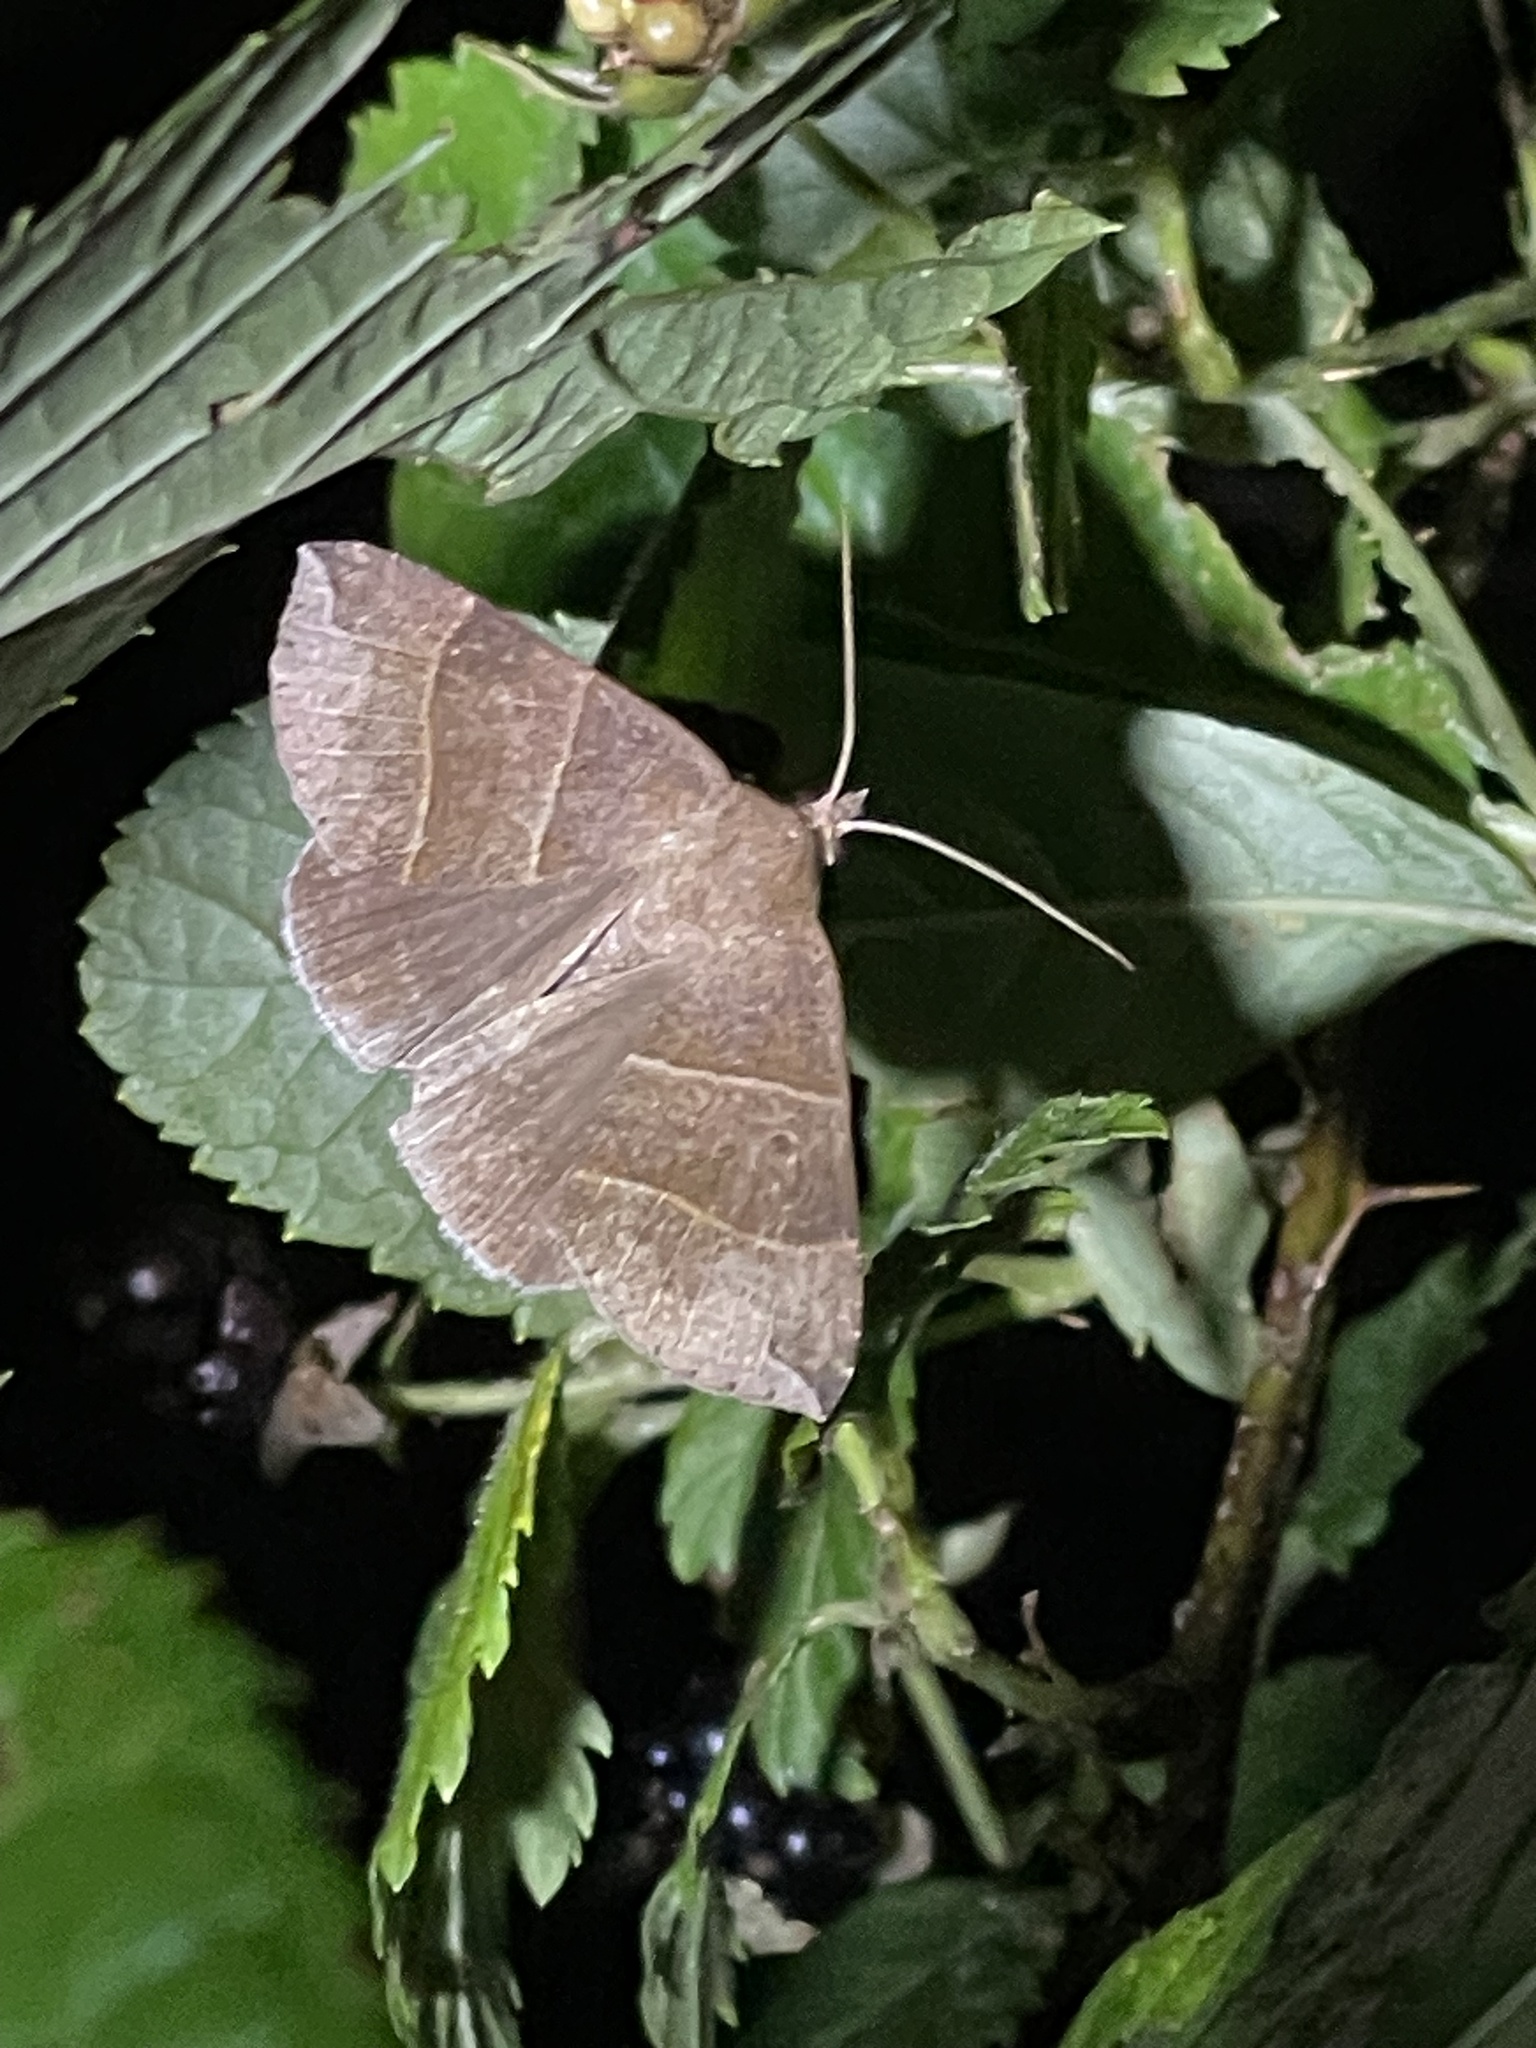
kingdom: Animalia
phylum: Arthropoda
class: Insecta
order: Lepidoptera
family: Erebidae
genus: Parallelia
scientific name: Parallelia bistriaris
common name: Maple looper moth
